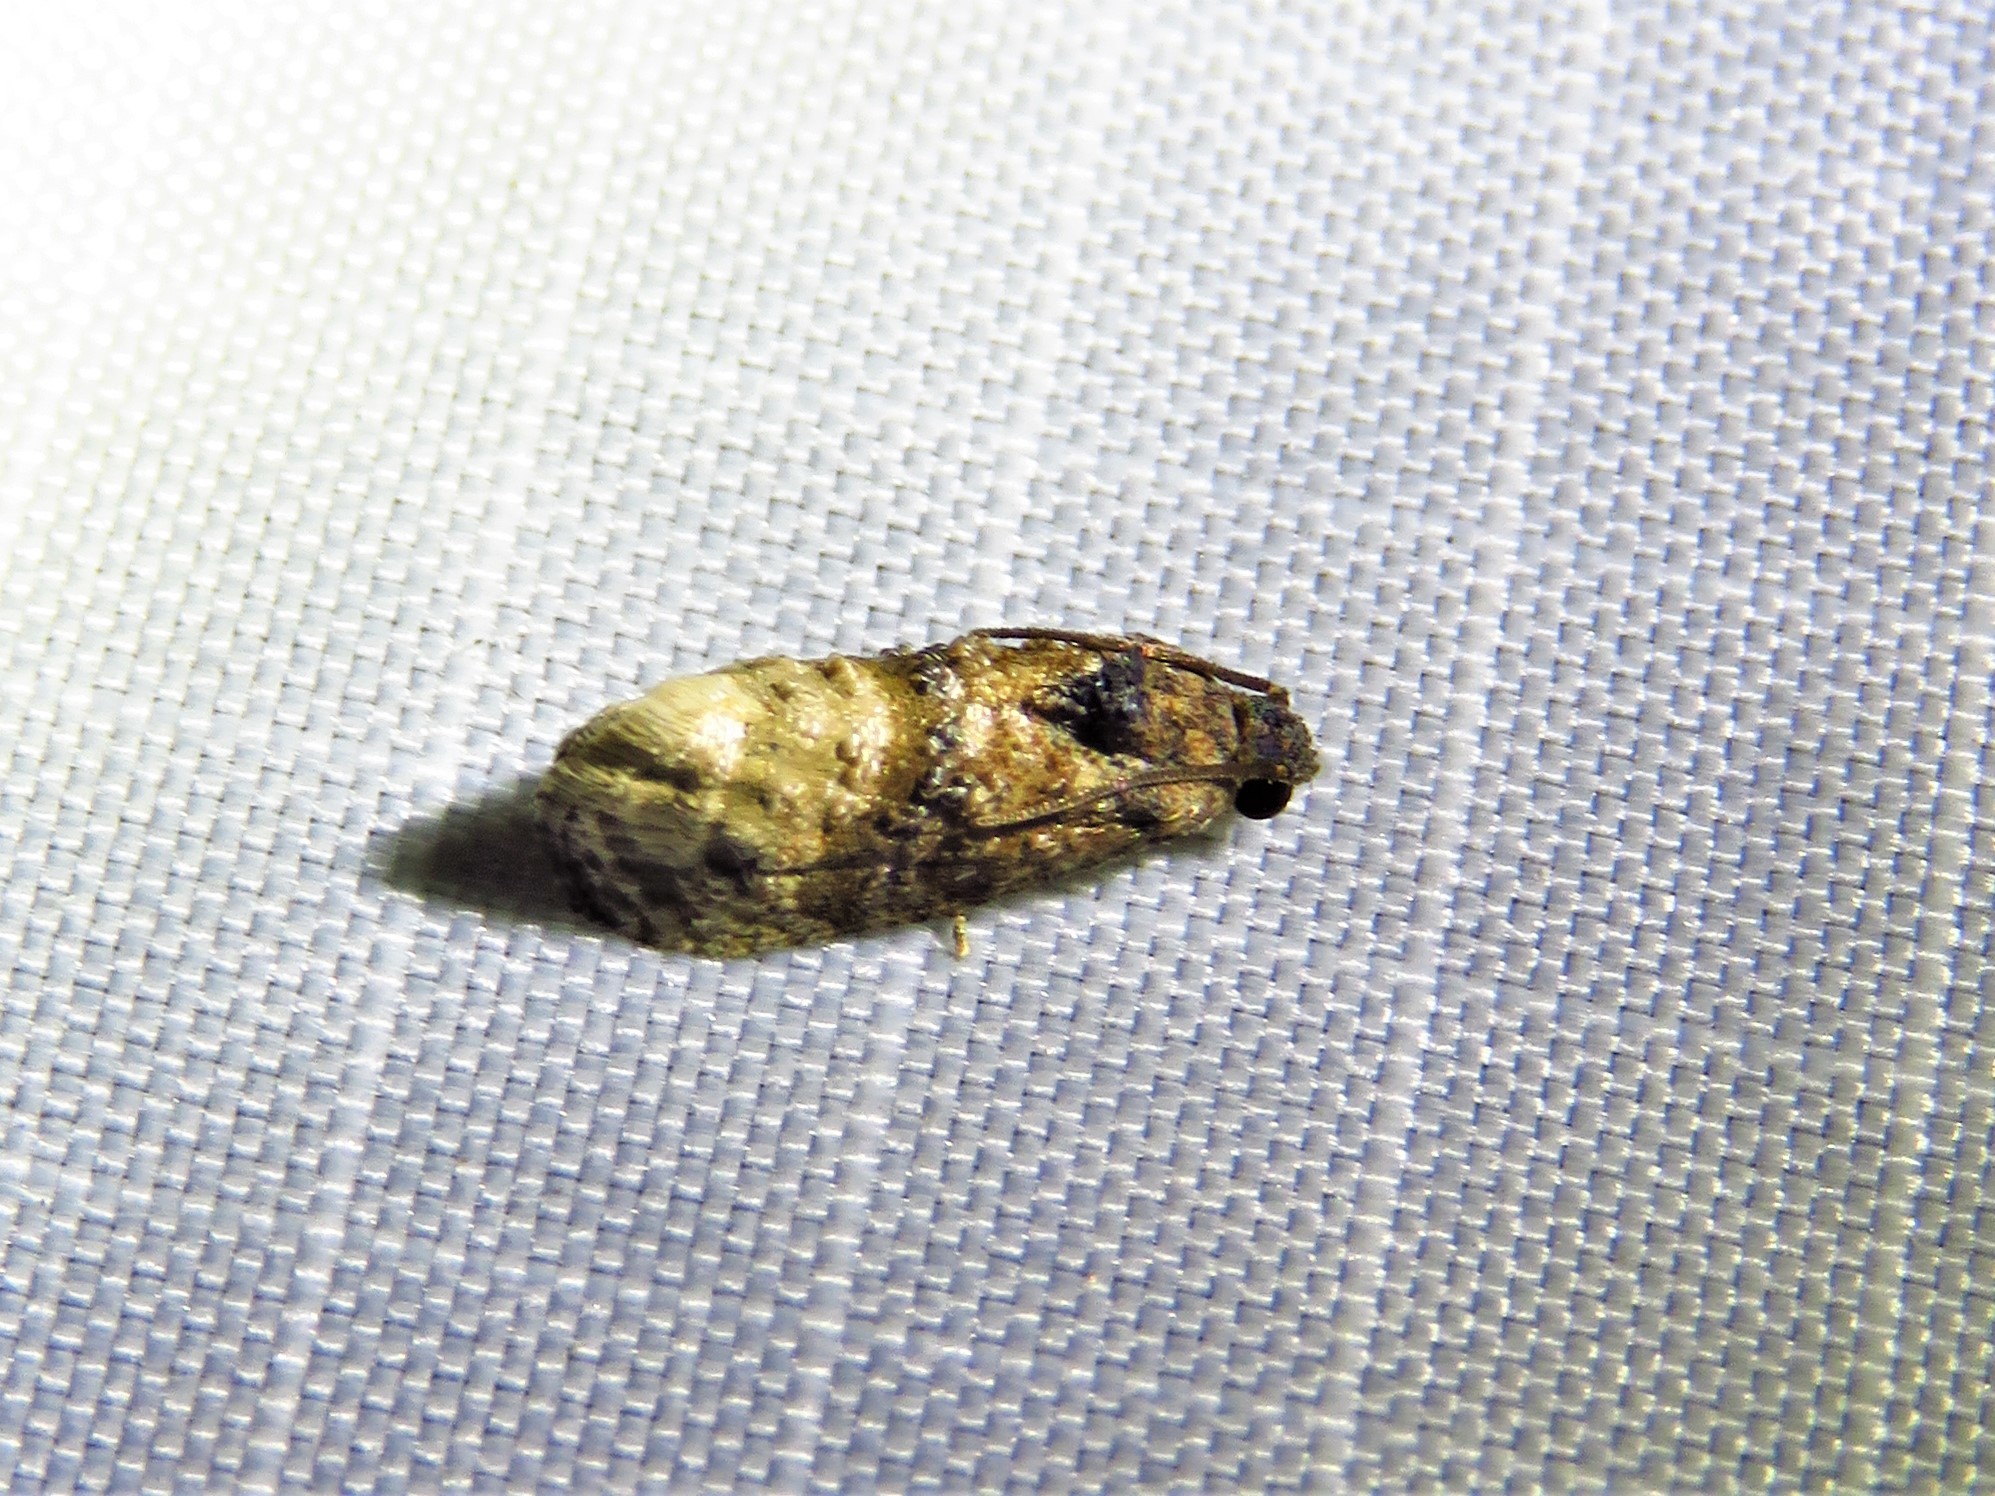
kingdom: Animalia
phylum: Arthropoda
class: Insecta
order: Lepidoptera
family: Tortricidae
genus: Ecdytolopha
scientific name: Ecdytolopha mana
